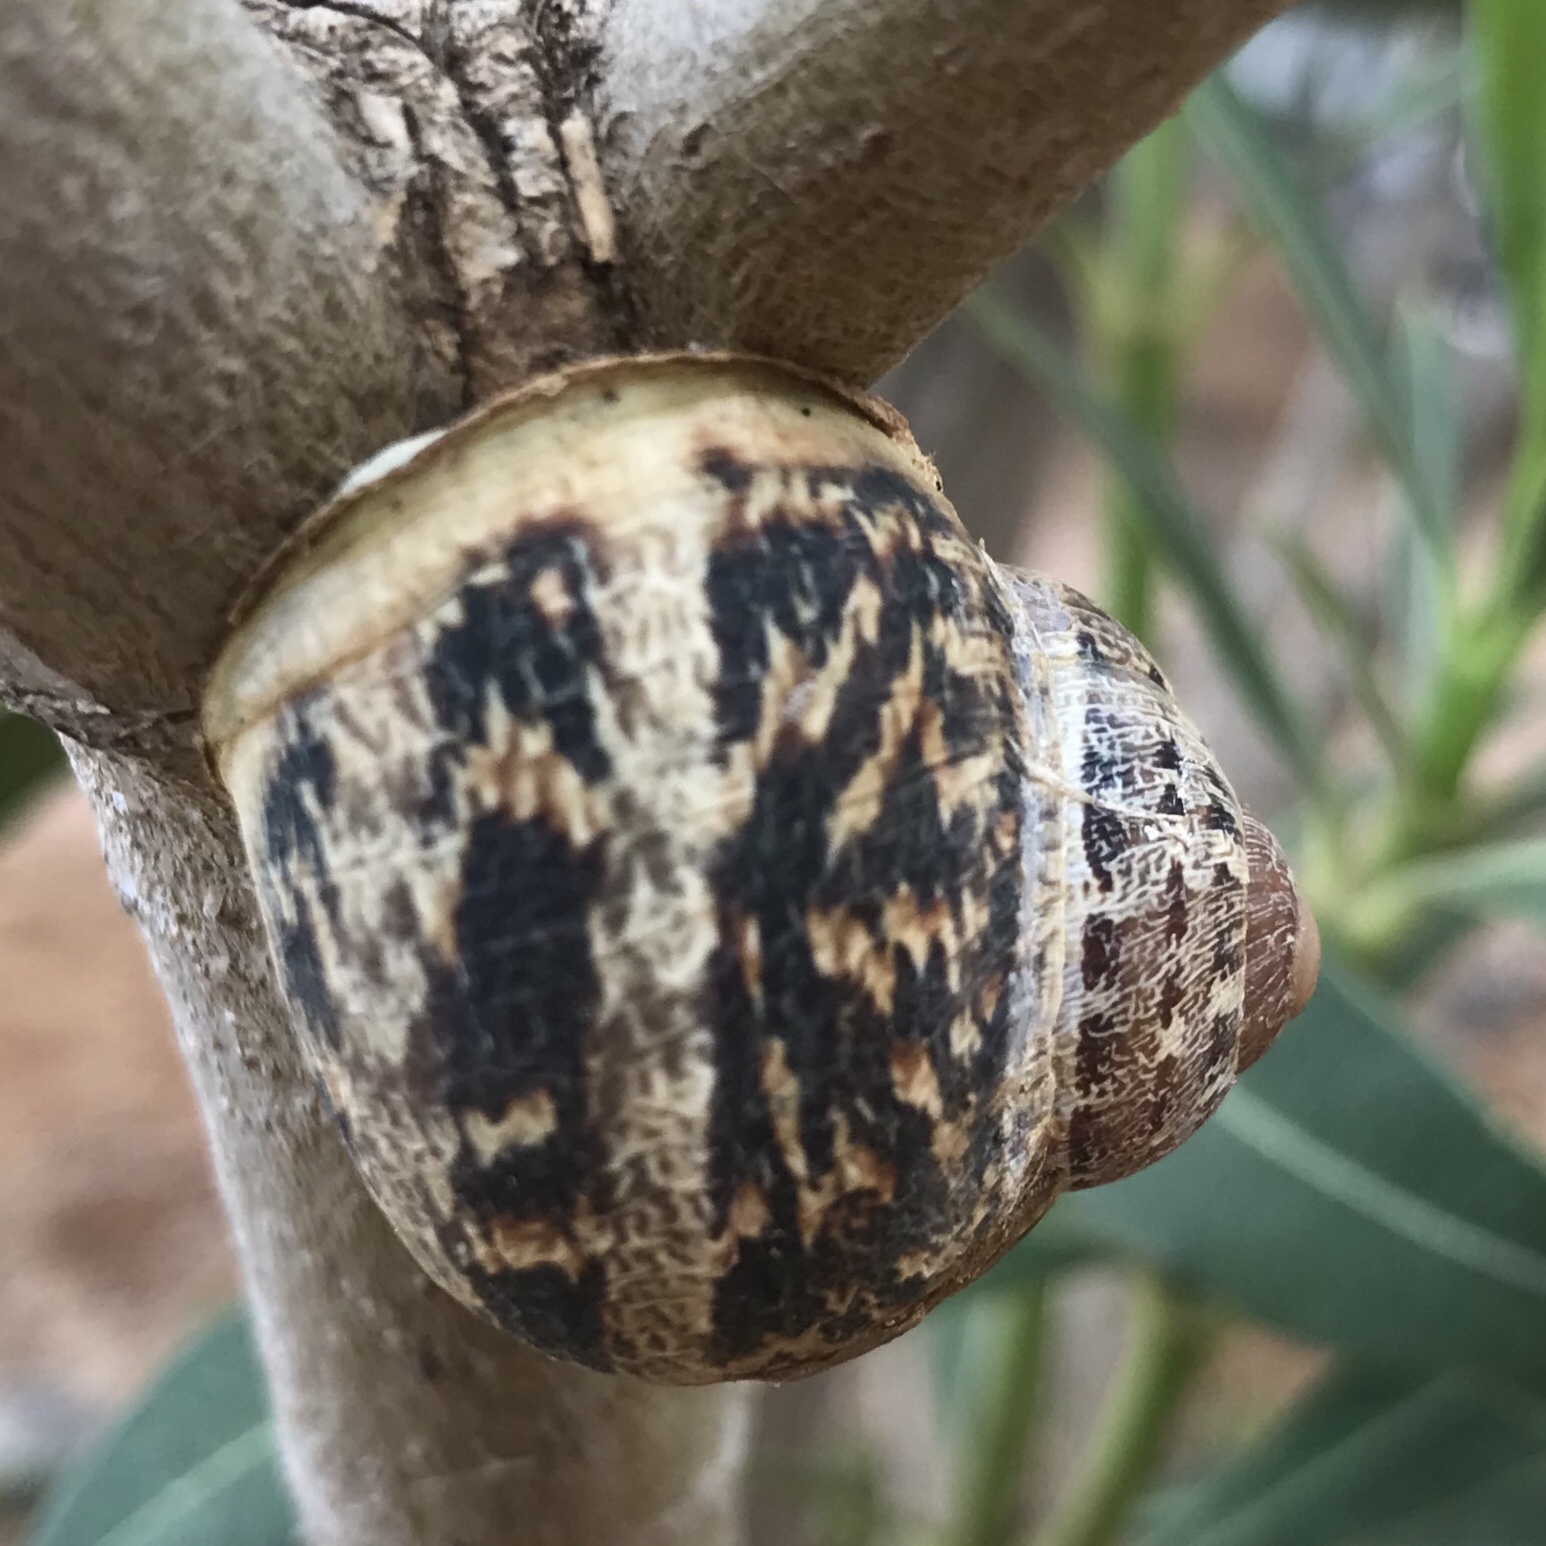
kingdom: Animalia
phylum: Mollusca
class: Gastropoda
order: Stylommatophora
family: Helicidae
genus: Cornu
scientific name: Cornu aspersum
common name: Brown garden snail
